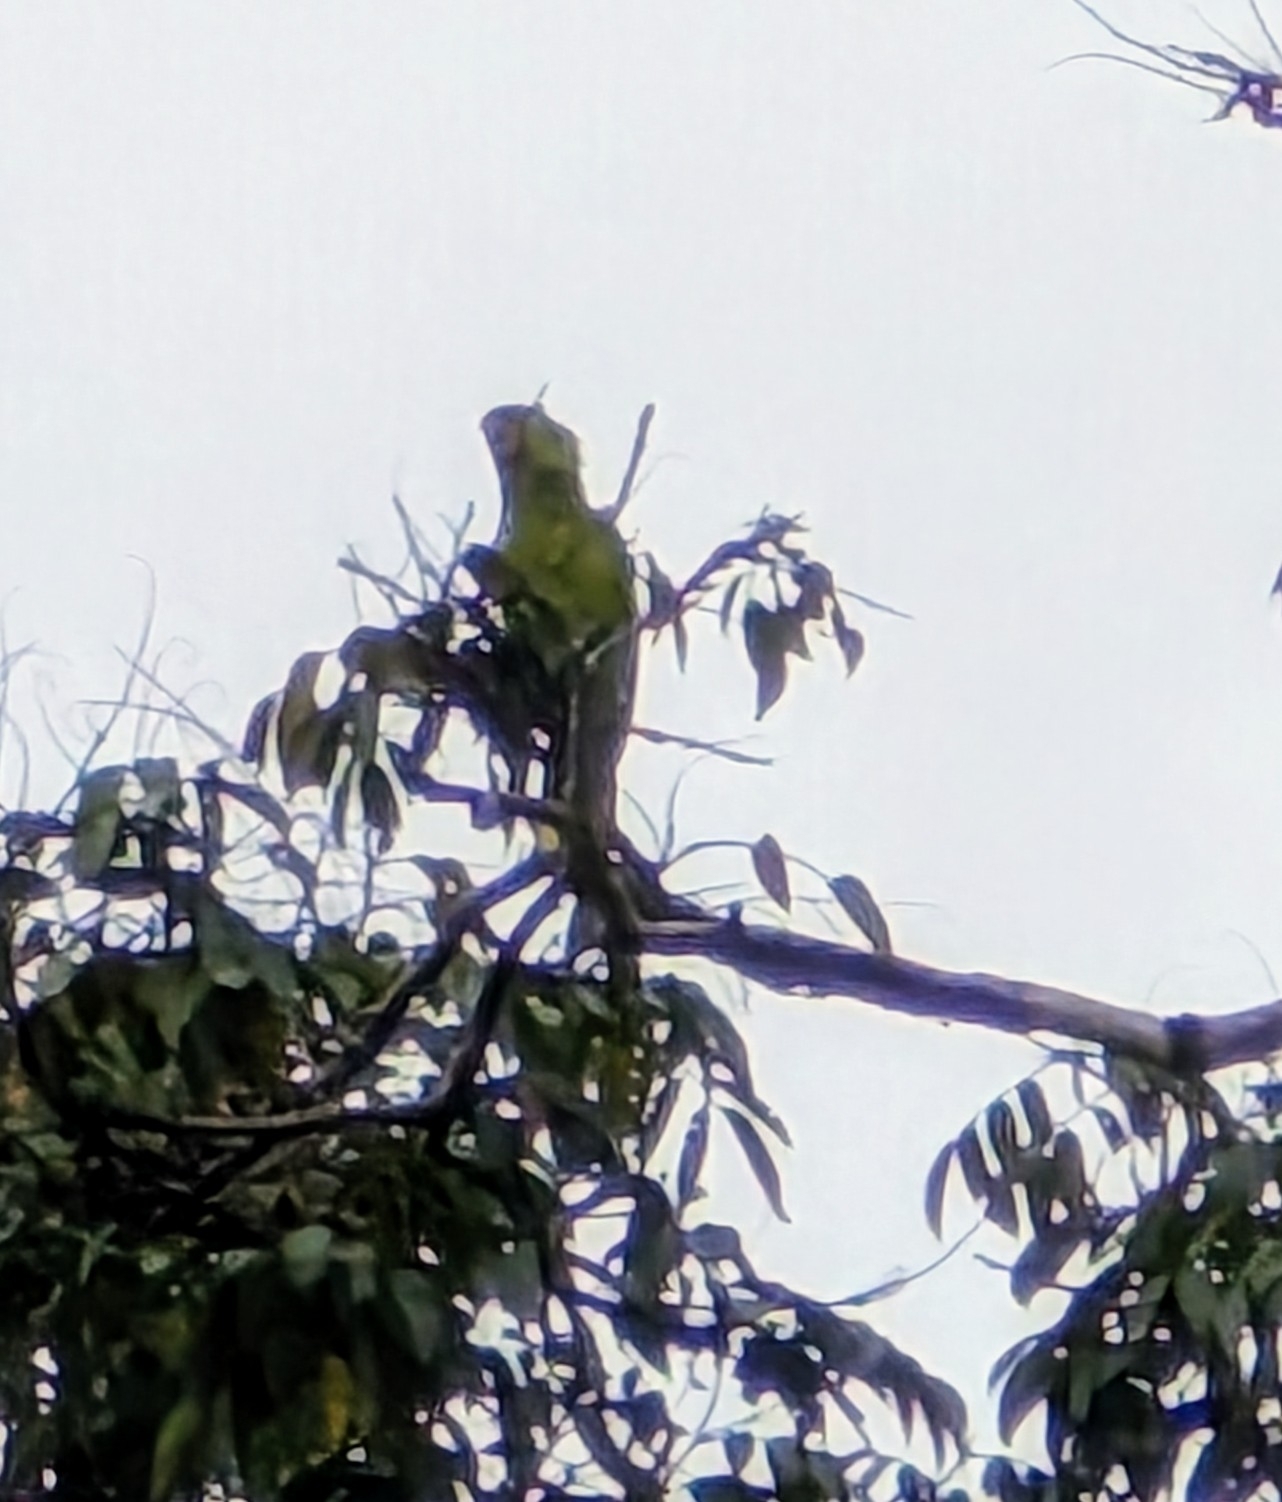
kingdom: Animalia
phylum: Chordata
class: Aves
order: Psittaciformes
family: Psittacidae
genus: Ara
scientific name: Ara ambiguus
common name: Great green macaw
